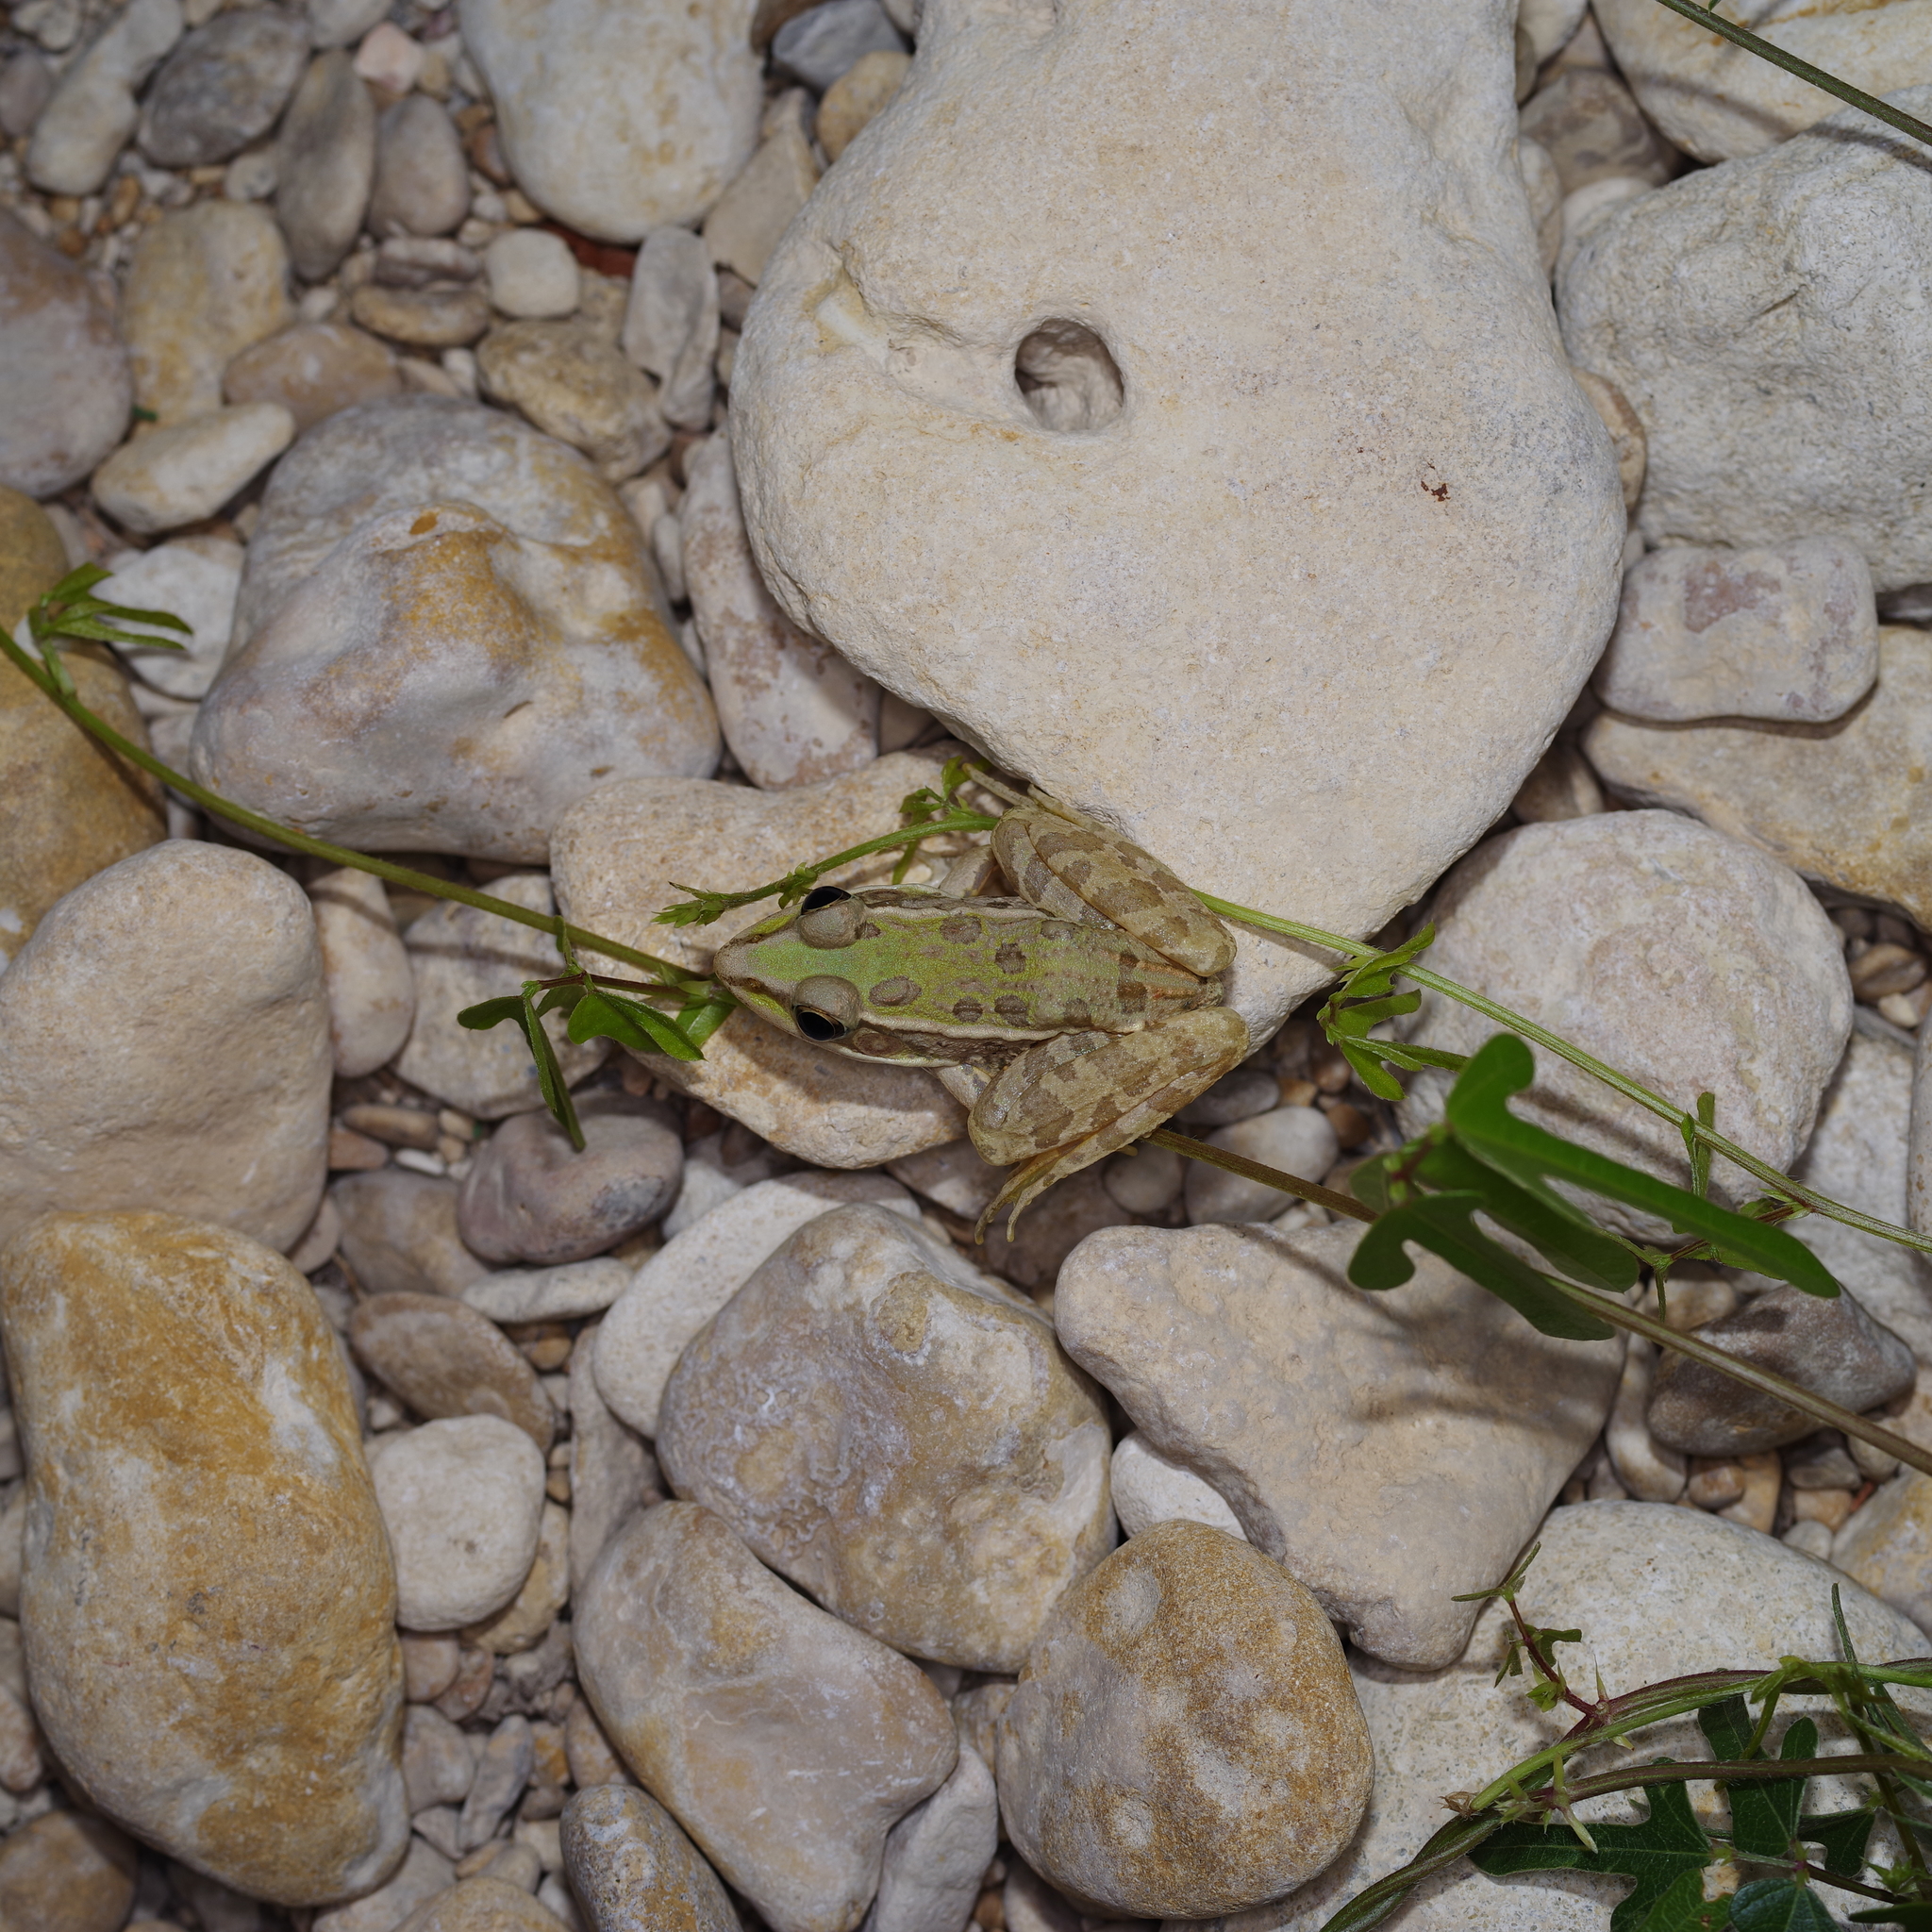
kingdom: Animalia
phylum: Chordata
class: Amphibia
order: Anura
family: Ranidae
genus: Lithobates
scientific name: Lithobates berlandieri
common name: Rio grande leopard frog
